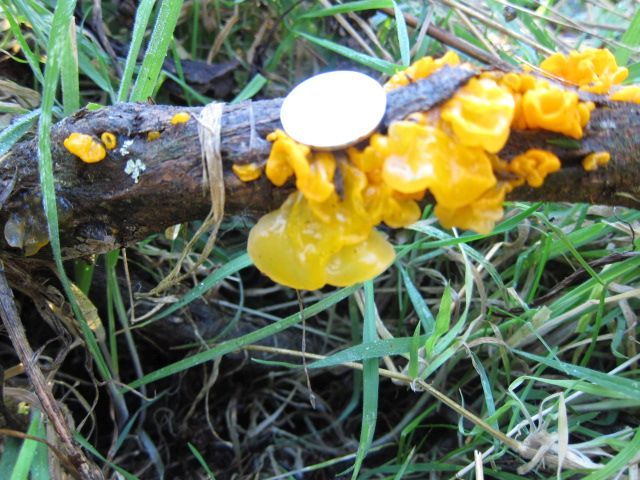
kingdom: Fungi
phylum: Basidiomycota
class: Tremellomycetes
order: Tremellales
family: Tremellaceae
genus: Tremella
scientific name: Tremella mesenterica
